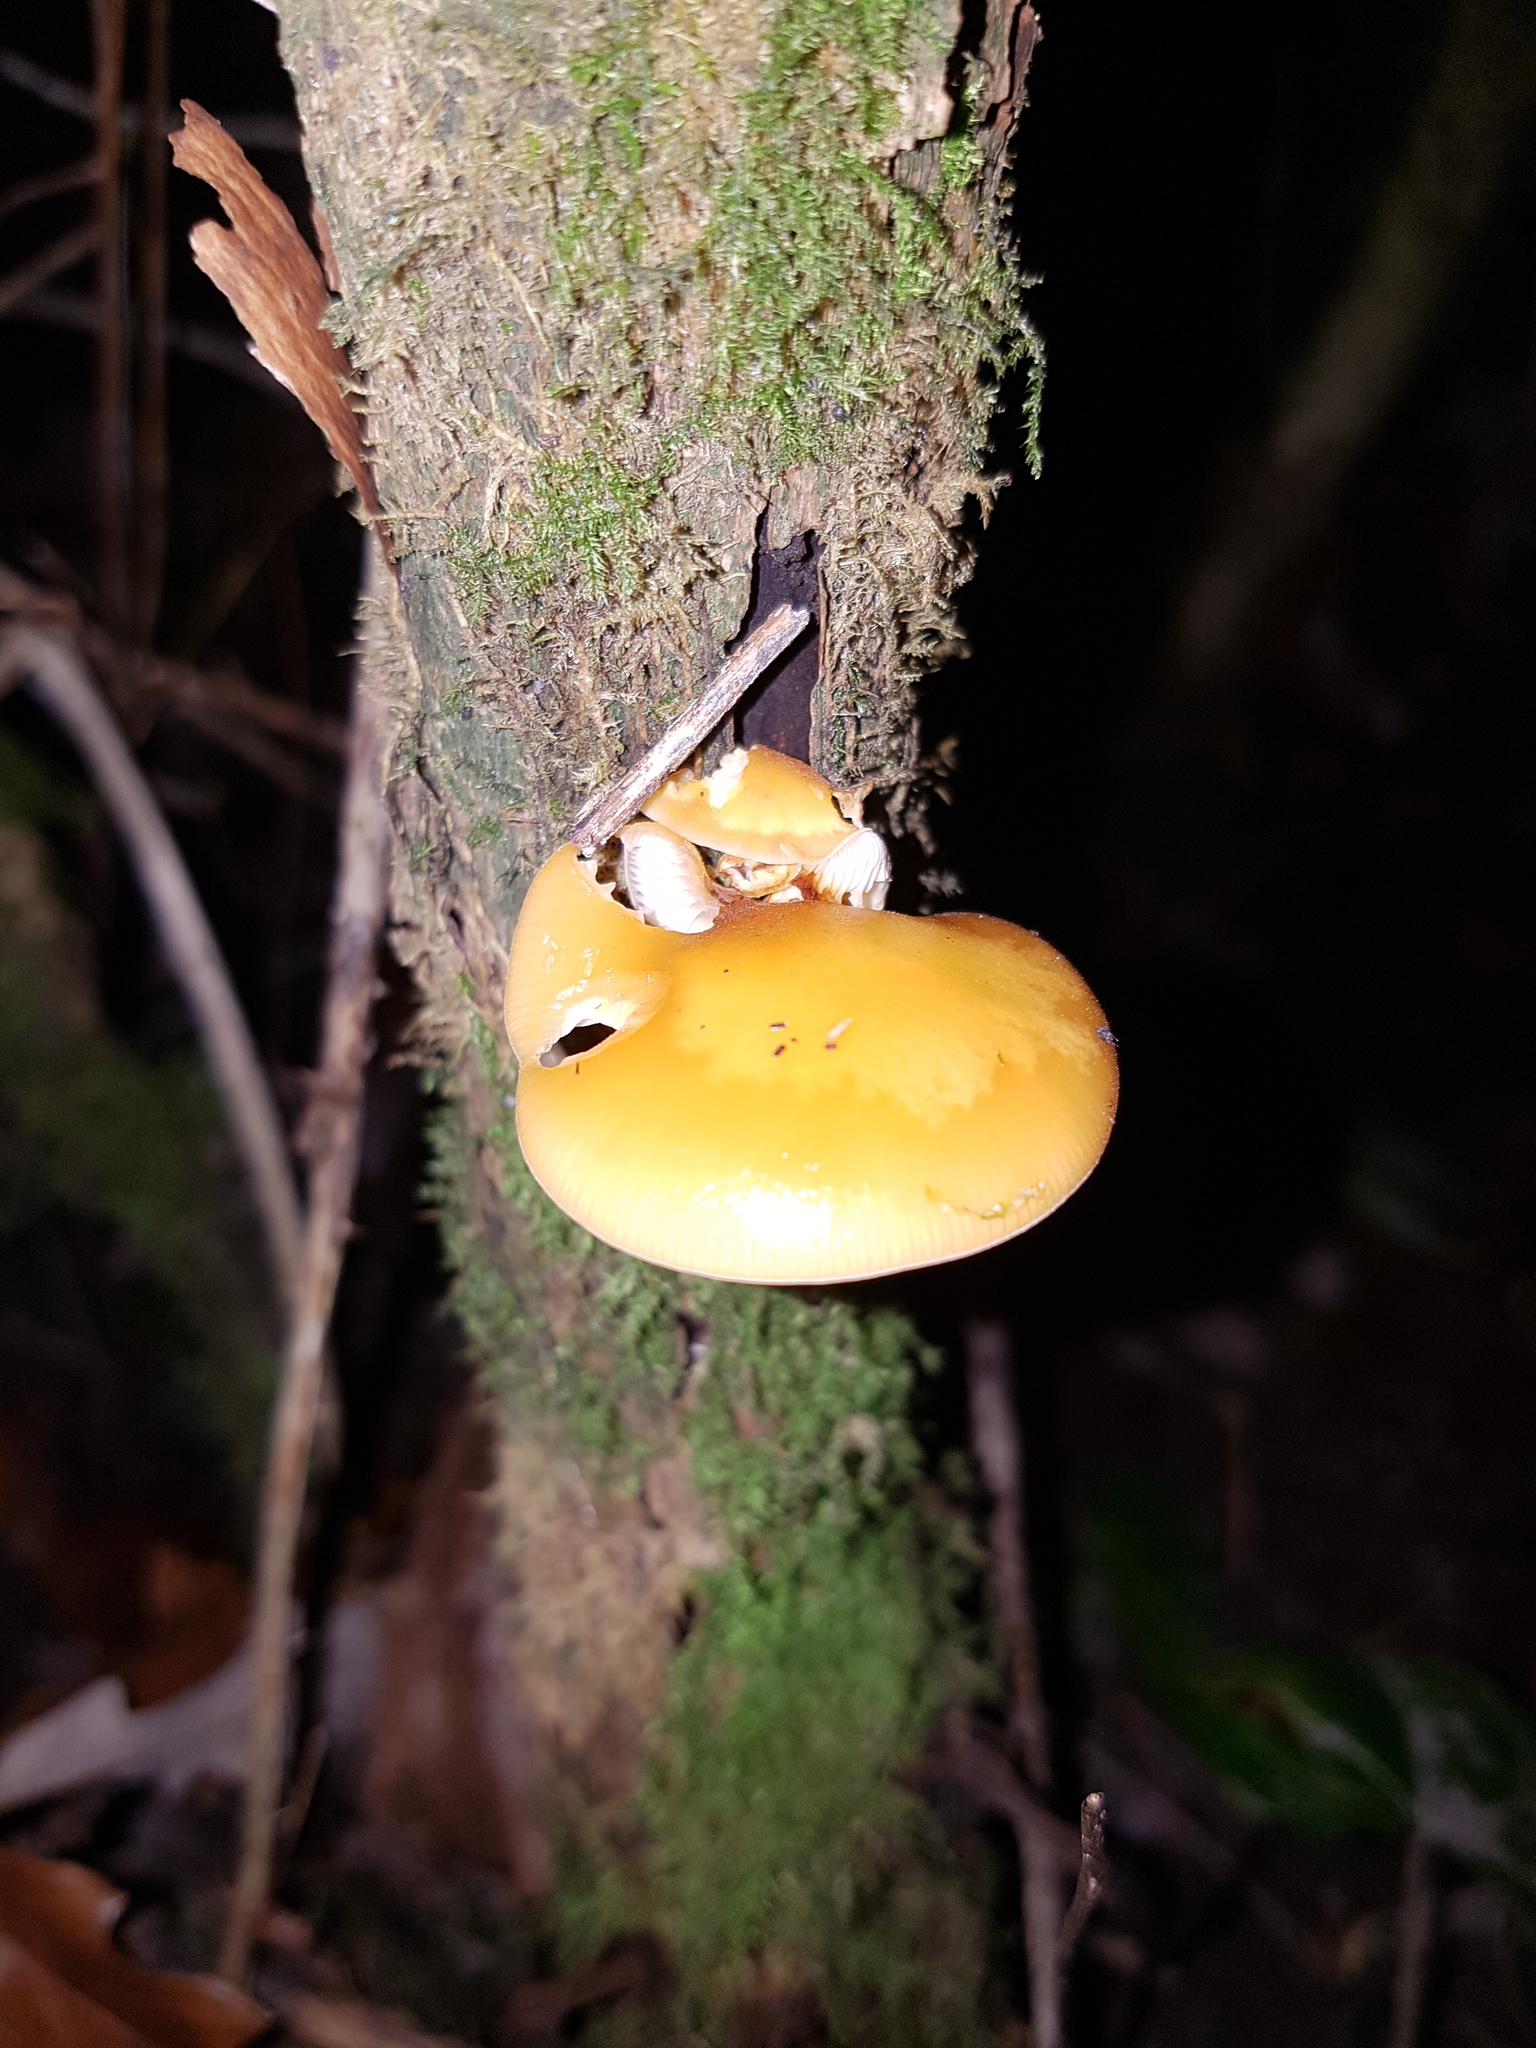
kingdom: Fungi
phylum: Basidiomycota
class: Agaricomycetes
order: Agaricales
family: Physalacriaceae
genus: Flammulina
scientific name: Flammulina
